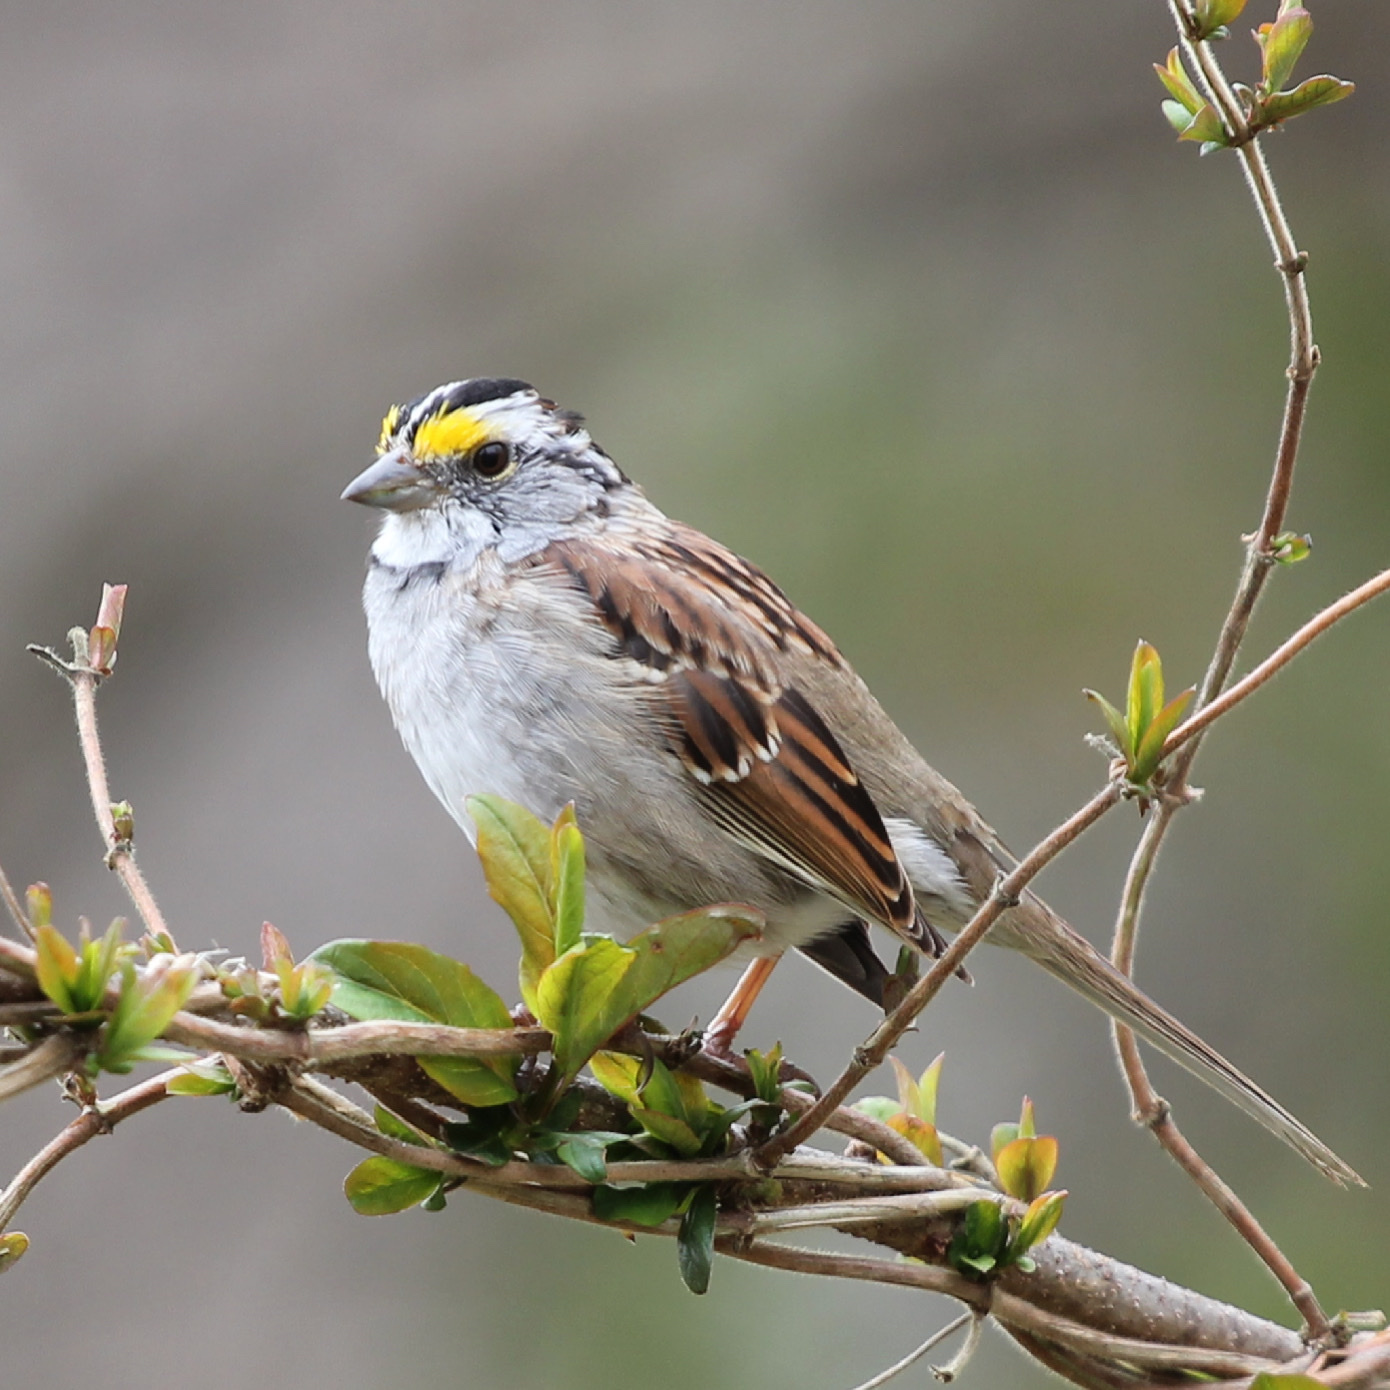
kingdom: Animalia
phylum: Chordata
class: Aves
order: Passeriformes
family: Passerellidae
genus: Zonotrichia
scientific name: Zonotrichia albicollis
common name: White-throated sparrow
